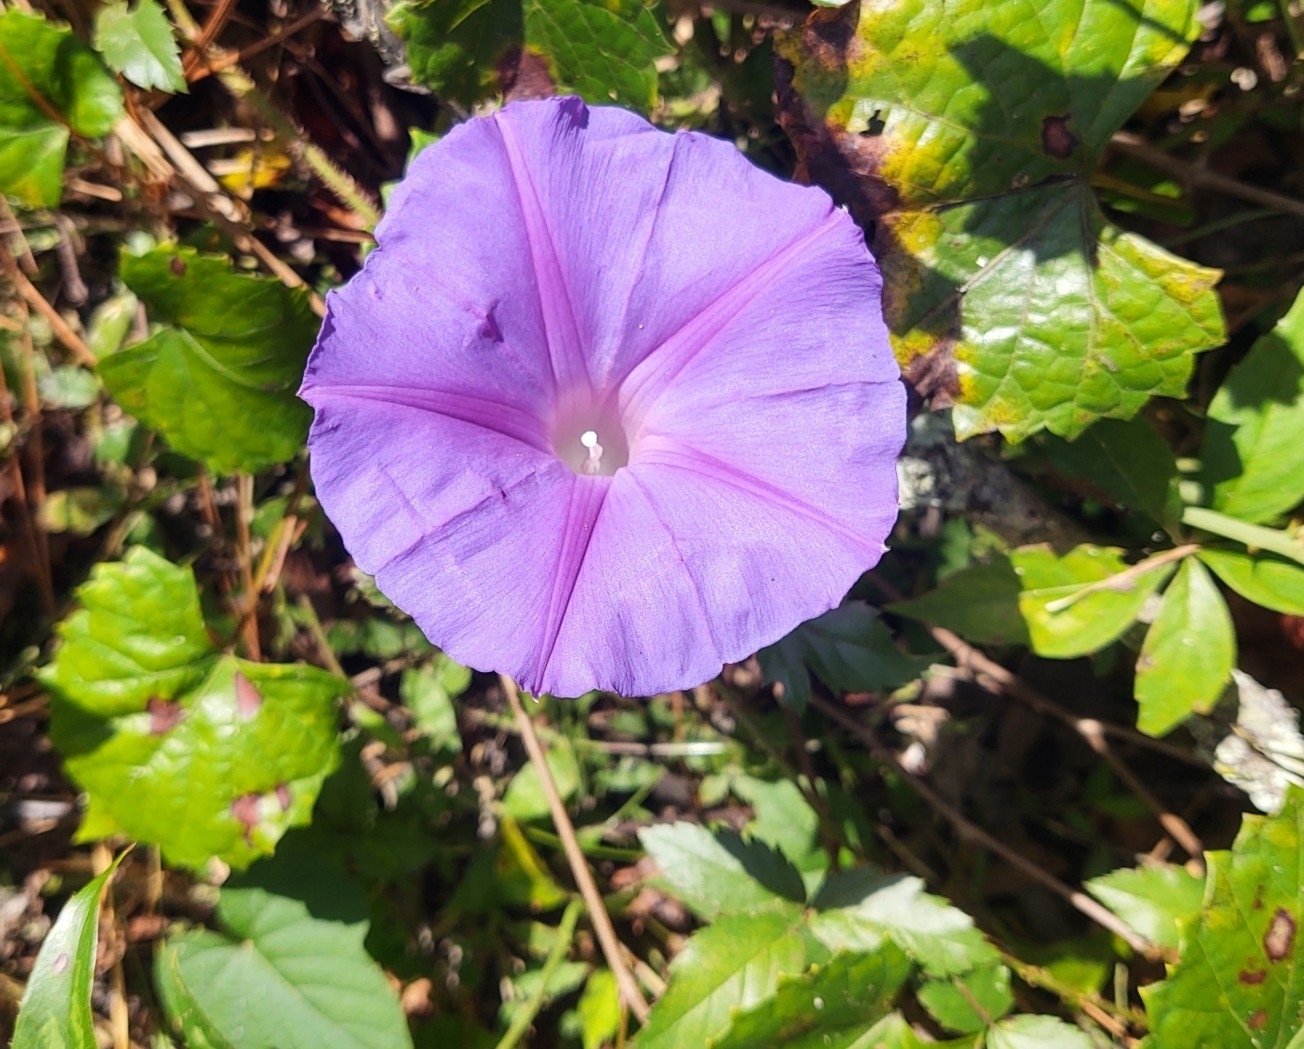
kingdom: Plantae
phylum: Tracheophyta
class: Magnoliopsida
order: Solanales
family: Convolvulaceae
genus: Ipomoea
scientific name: Ipomoea indica
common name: Blue dawnflower
